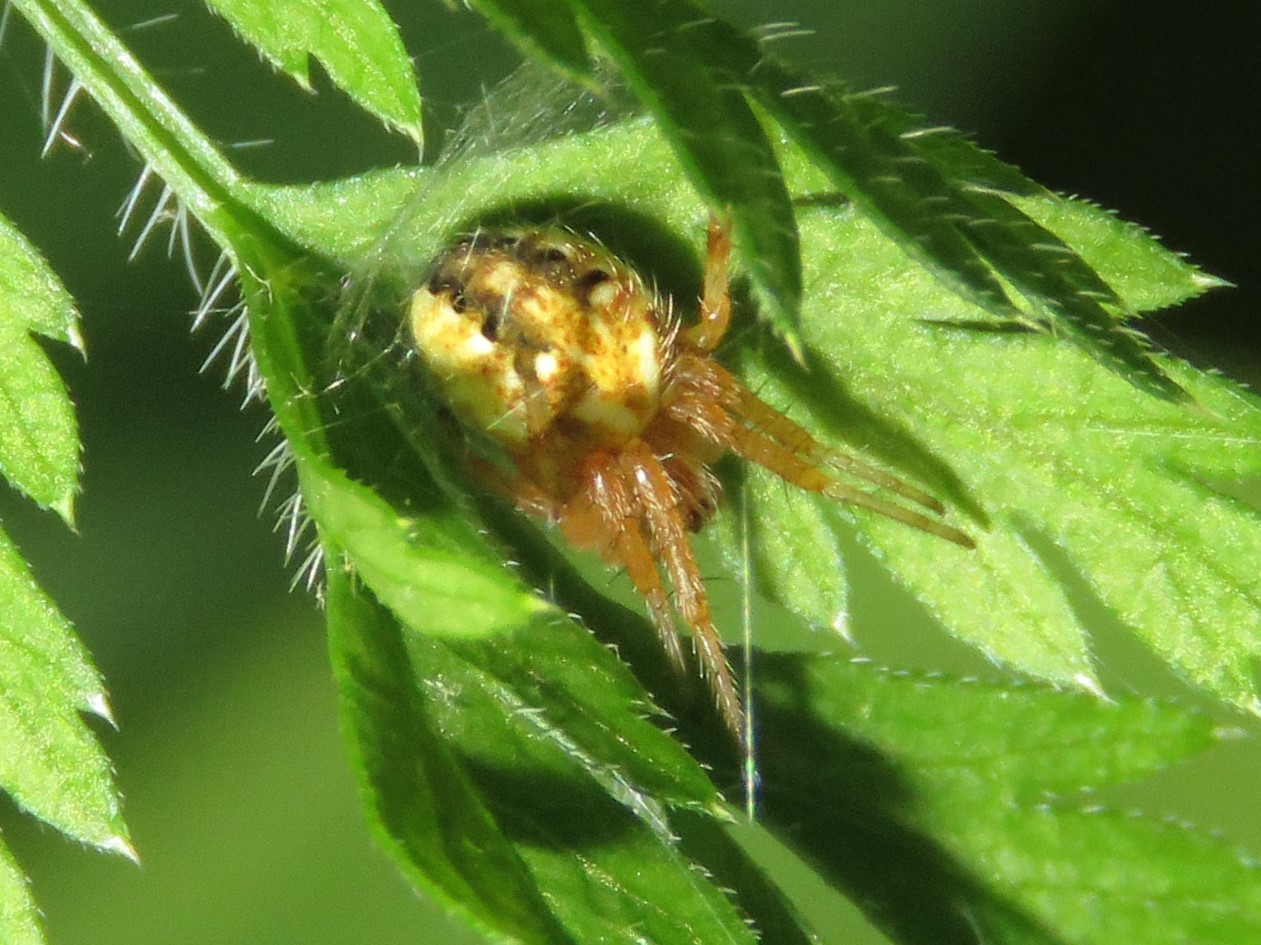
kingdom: Animalia
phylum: Arthropoda
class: Arachnida
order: Araneae
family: Araneidae
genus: Neoscona
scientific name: Neoscona arabesca
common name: Orb weavers
